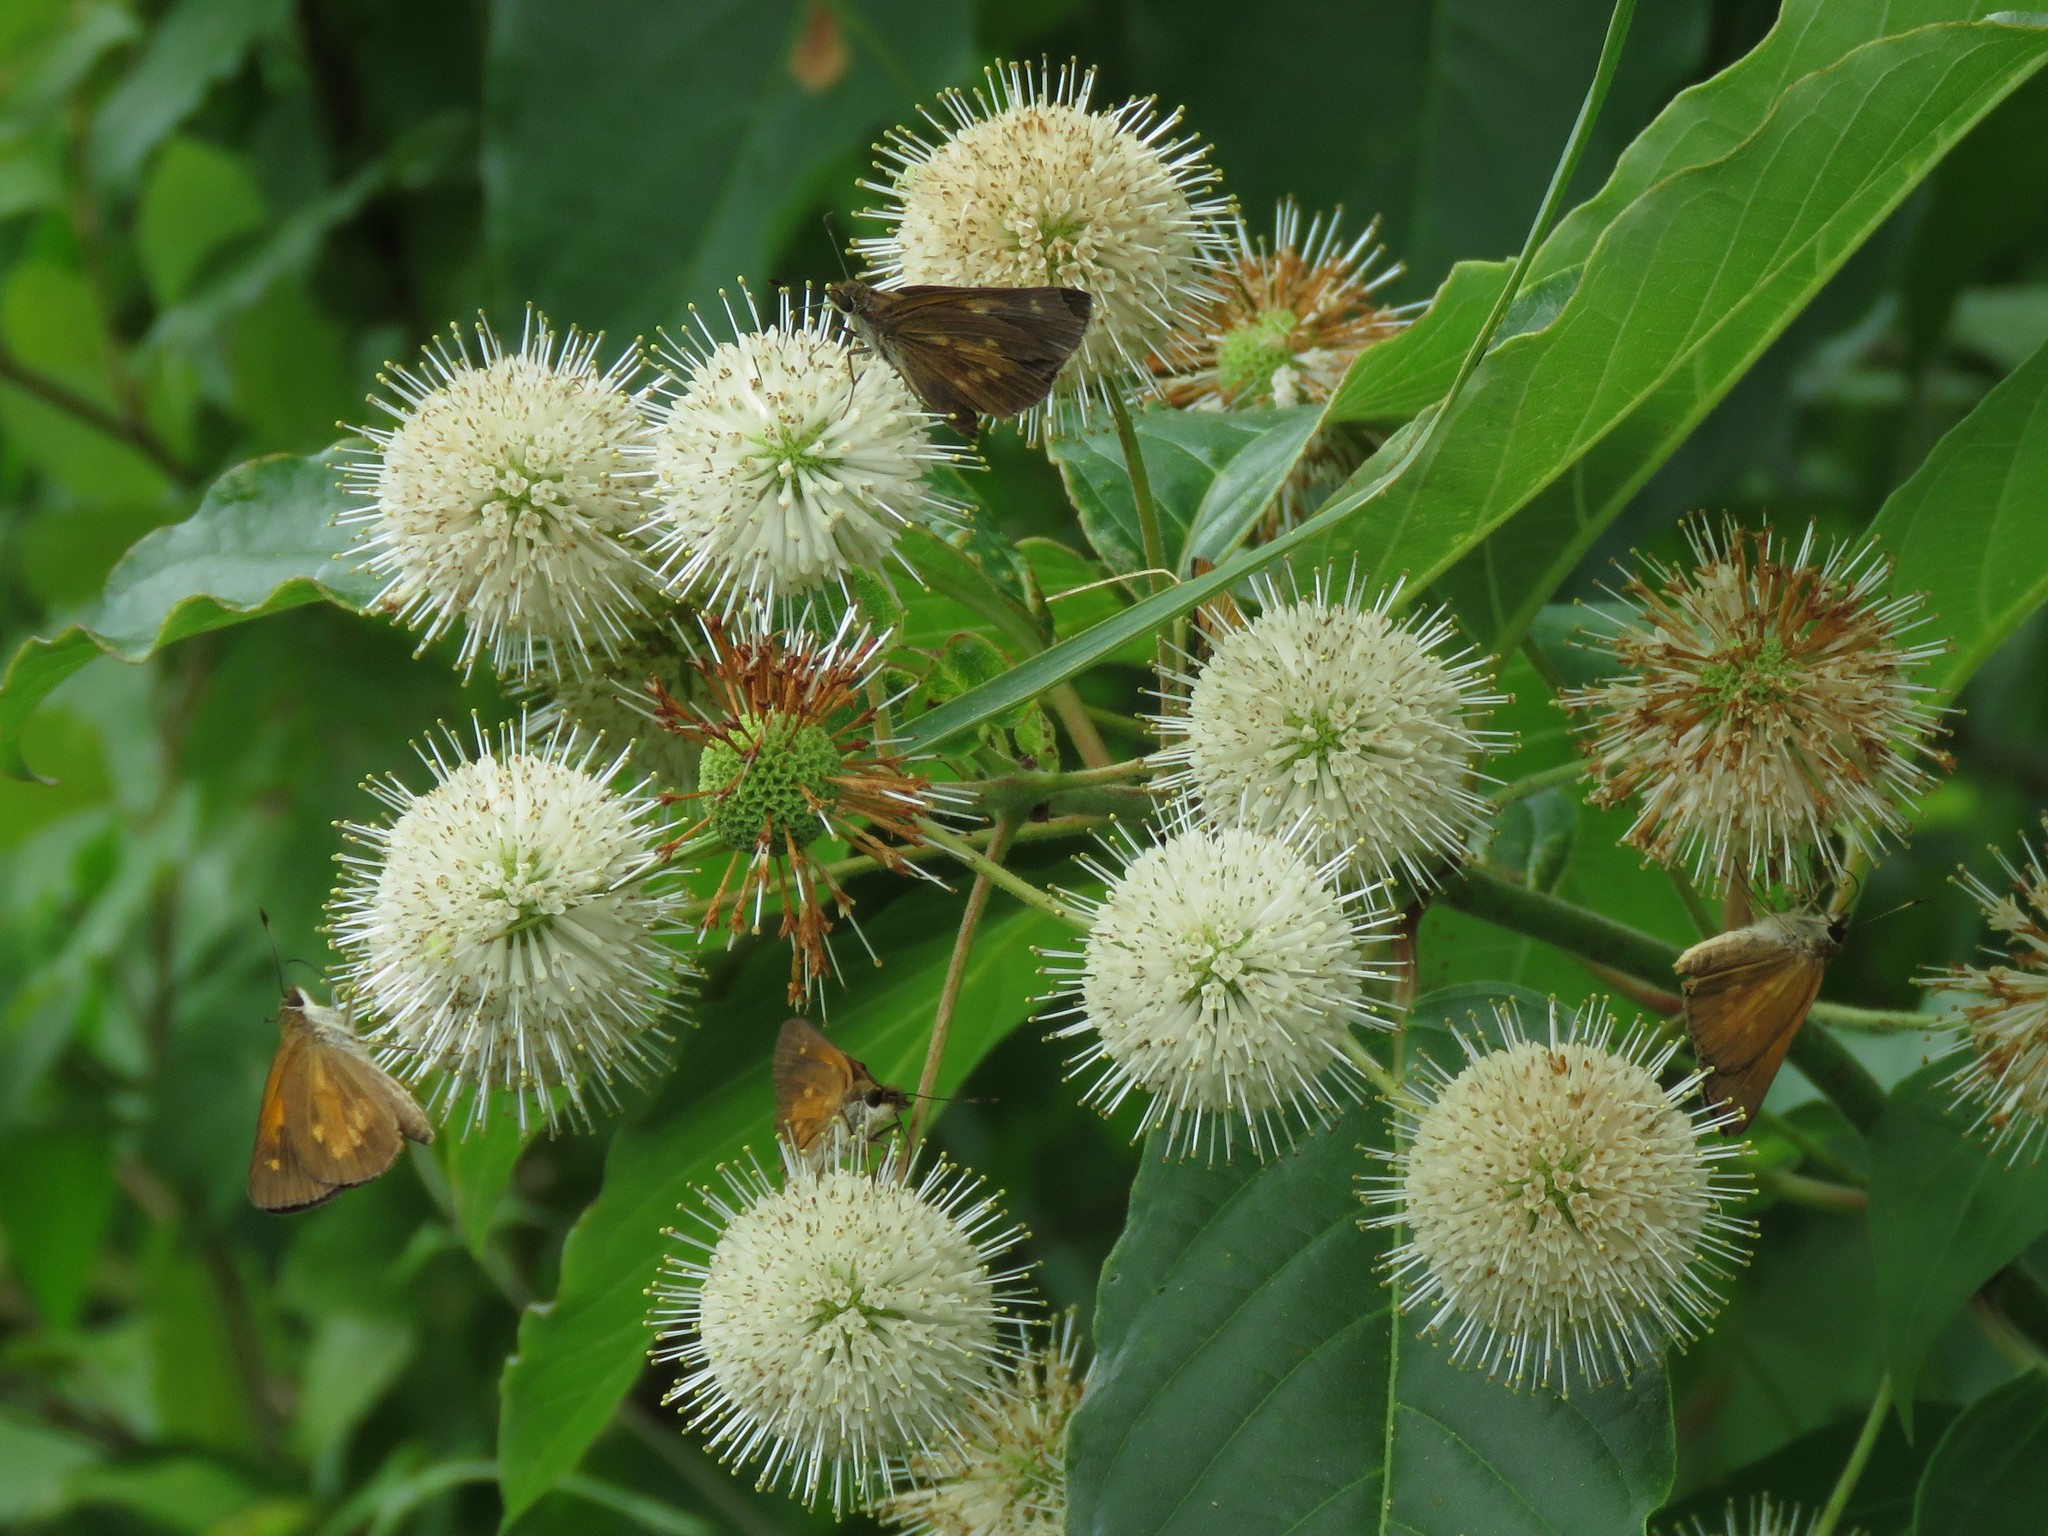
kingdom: Animalia
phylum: Arthropoda
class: Insecta
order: Lepidoptera
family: Hesperiidae
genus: Poanes
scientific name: Poanes viator
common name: Broad-winged skipper
